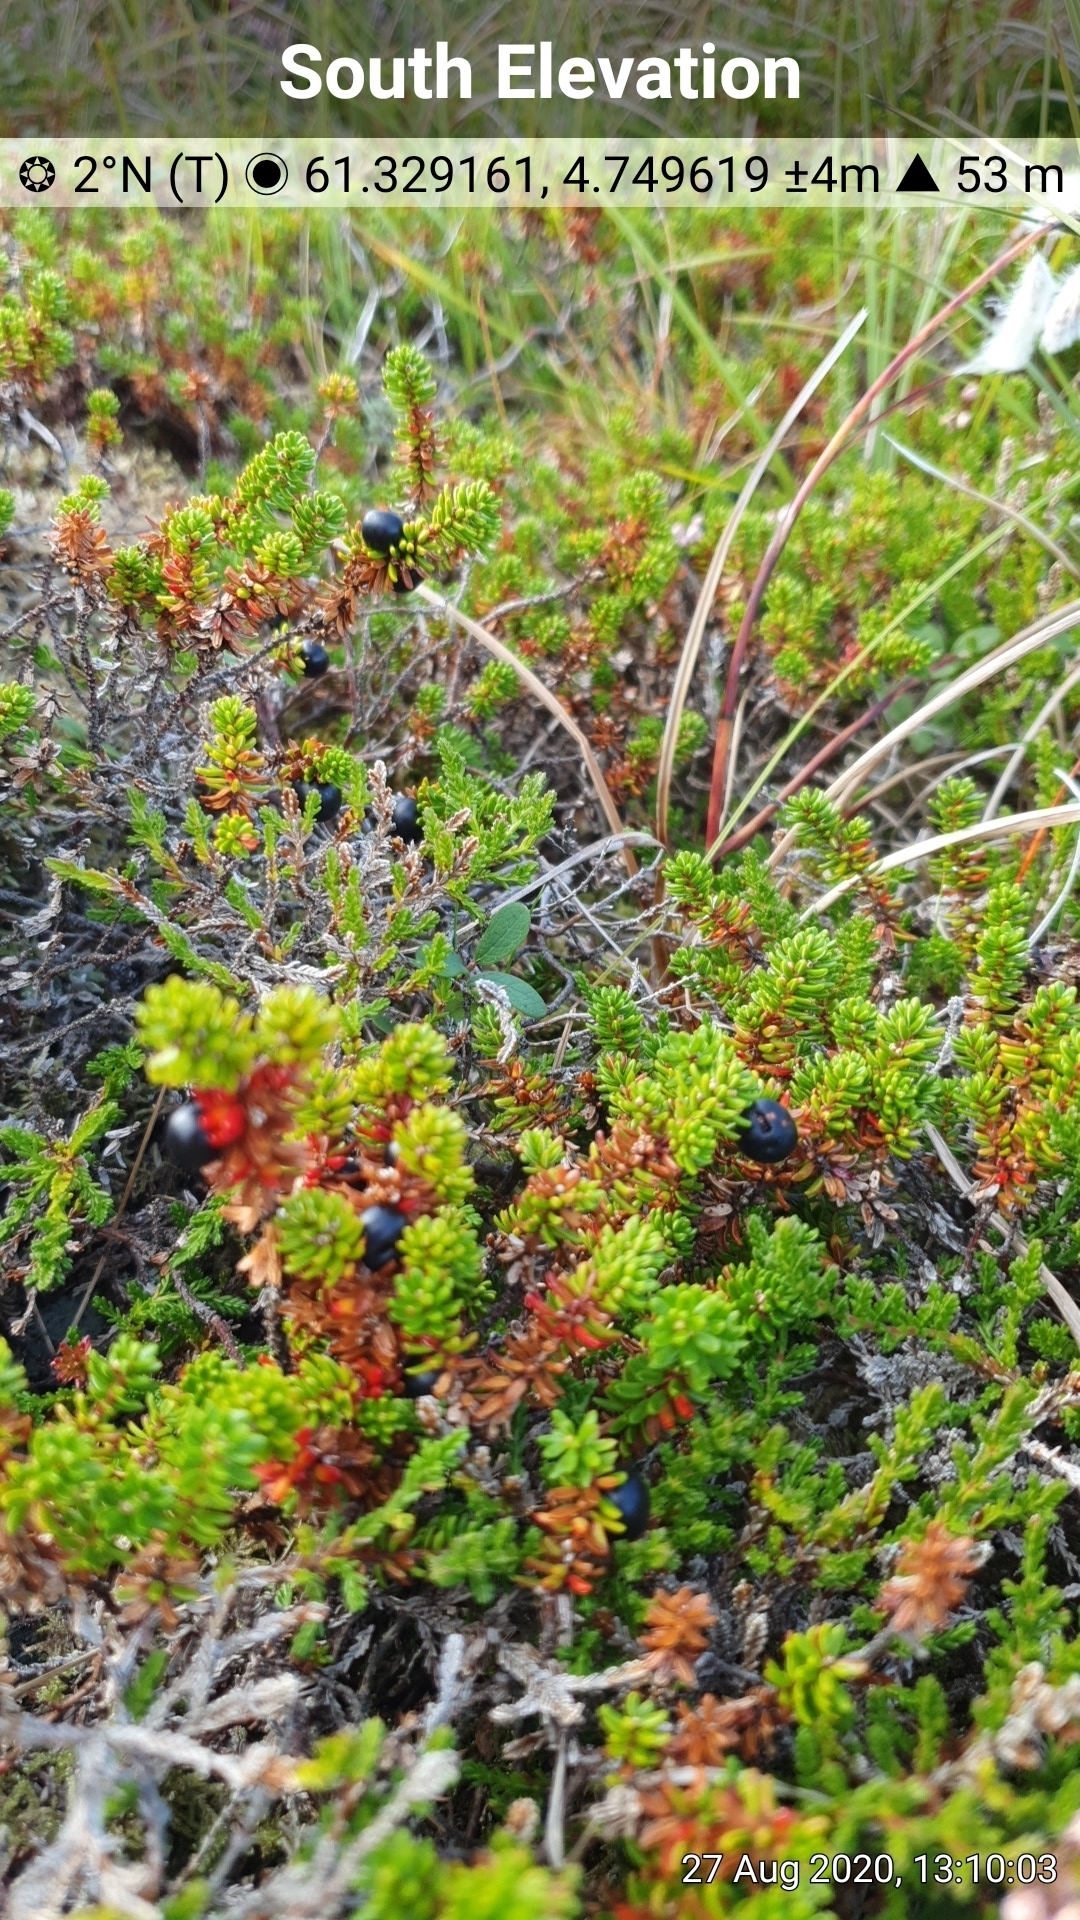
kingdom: Plantae
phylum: Tracheophyta
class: Magnoliopsida
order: Ericales
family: Ericaceae
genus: Empetrum
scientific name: Empetrum nigrum
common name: Black crowberry
